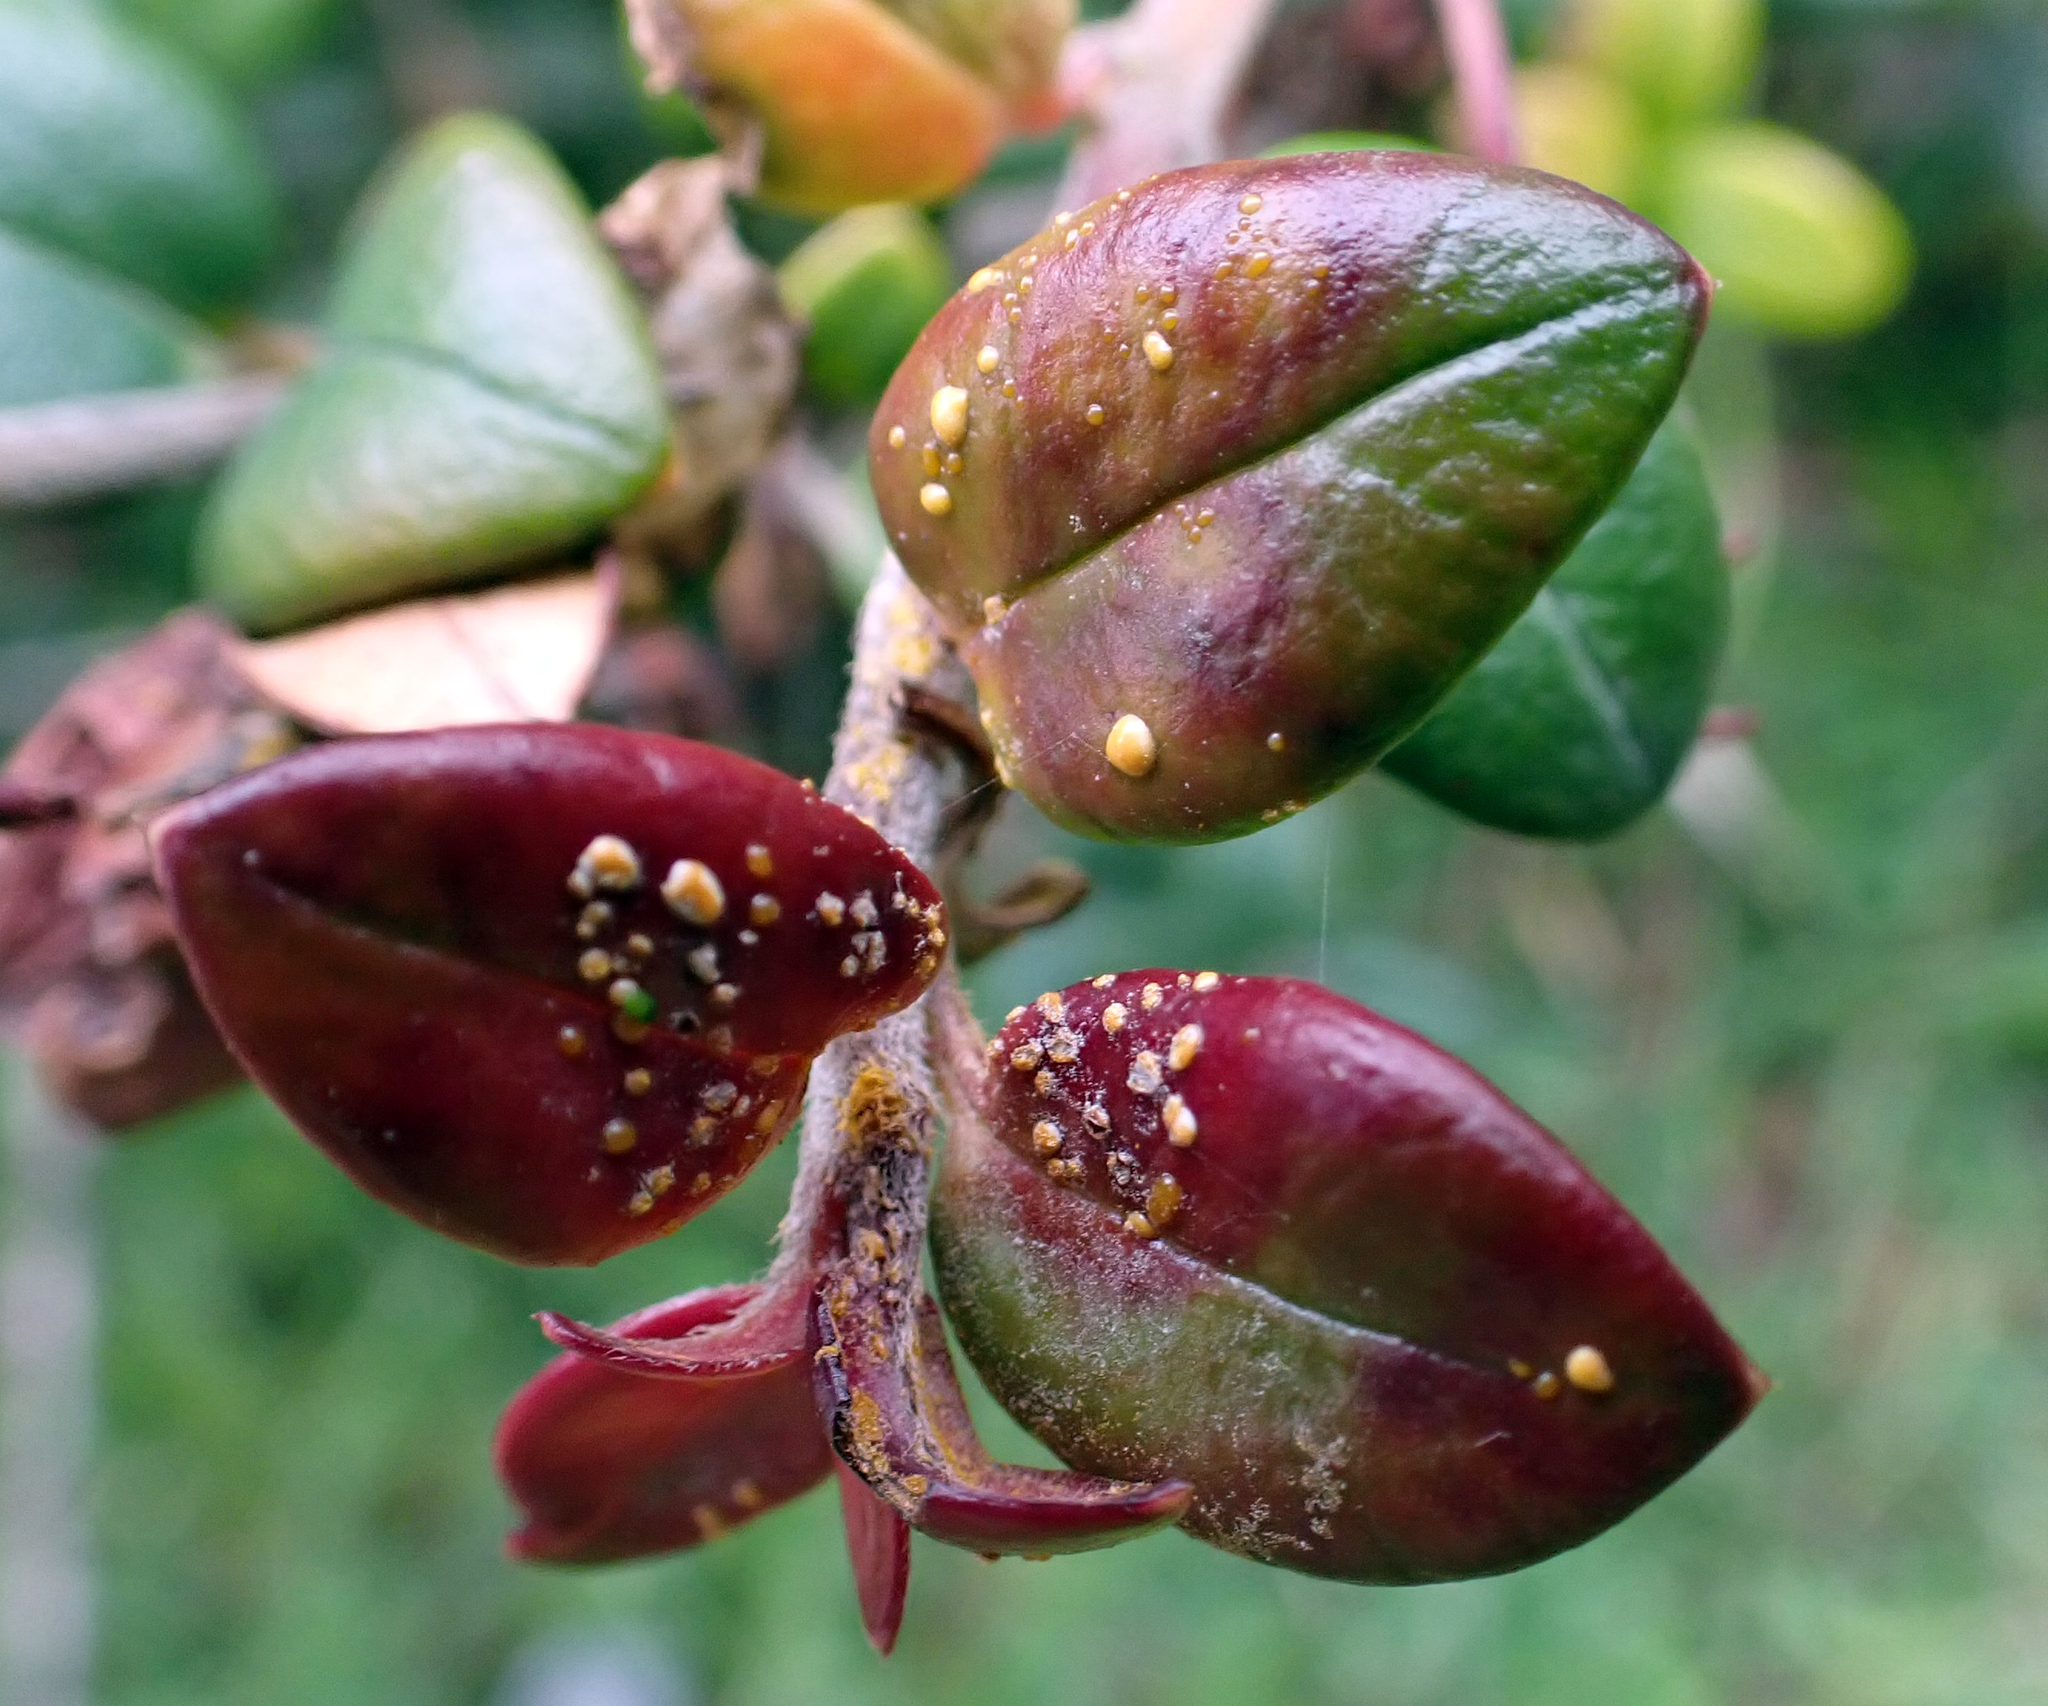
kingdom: Fungi
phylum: Basidiomycota
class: Pucciniomycetes
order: Pucciniales
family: Sphaerophragmiaceae
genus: Austropuccinia
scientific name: Austropuccinia psidii
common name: Myrtle rust
